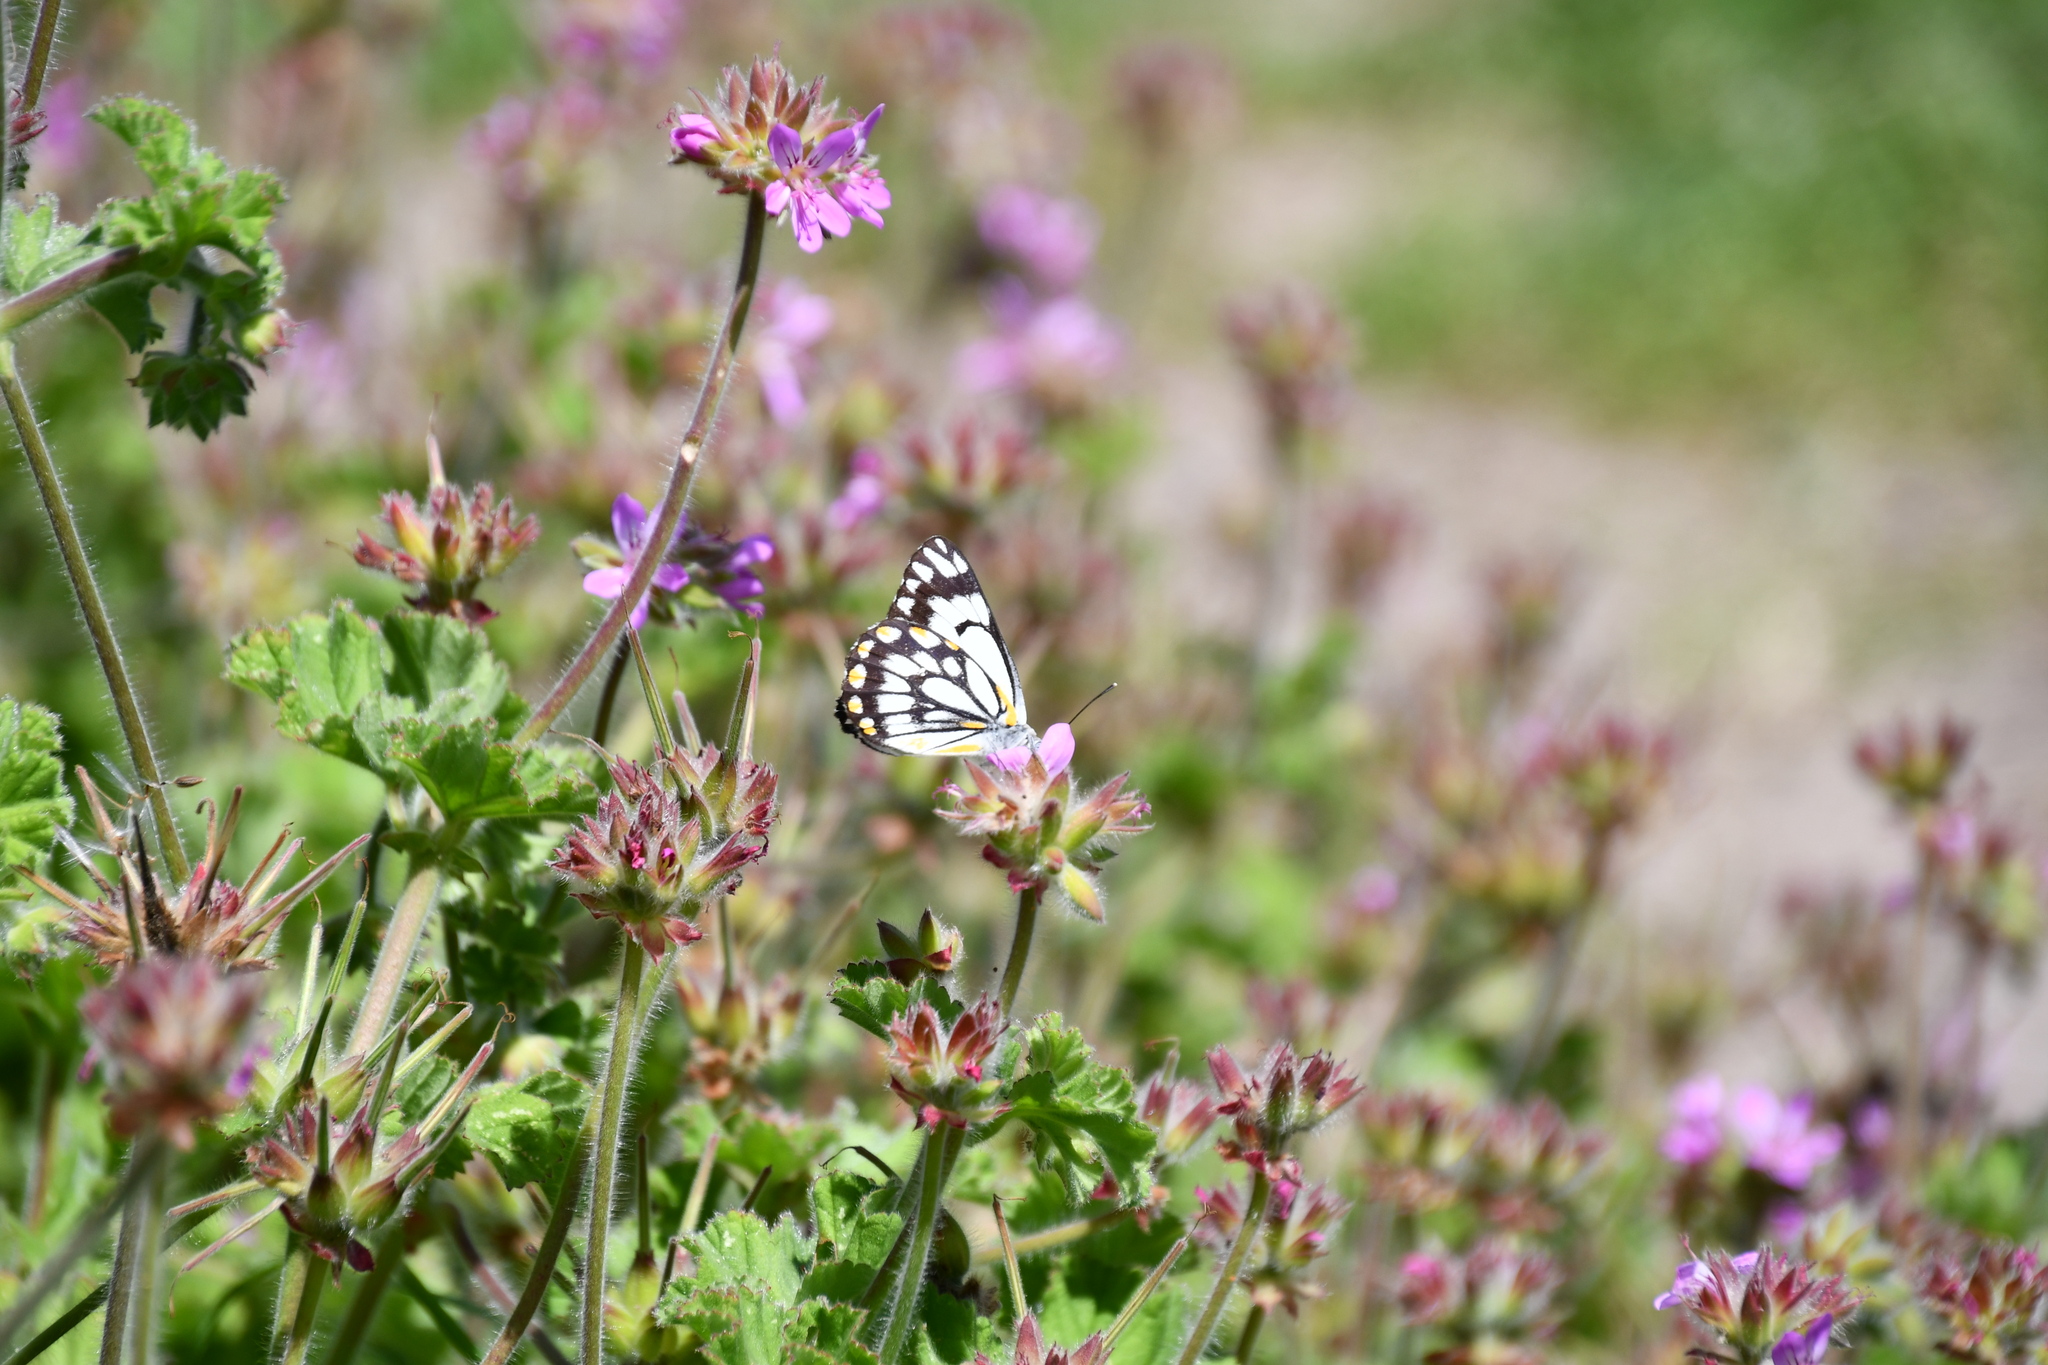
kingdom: Animalia
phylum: Arthropoda
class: Insecta
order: Lepidoptera
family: Pieridae
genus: Belenois
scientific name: Belenois java
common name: Caper white
